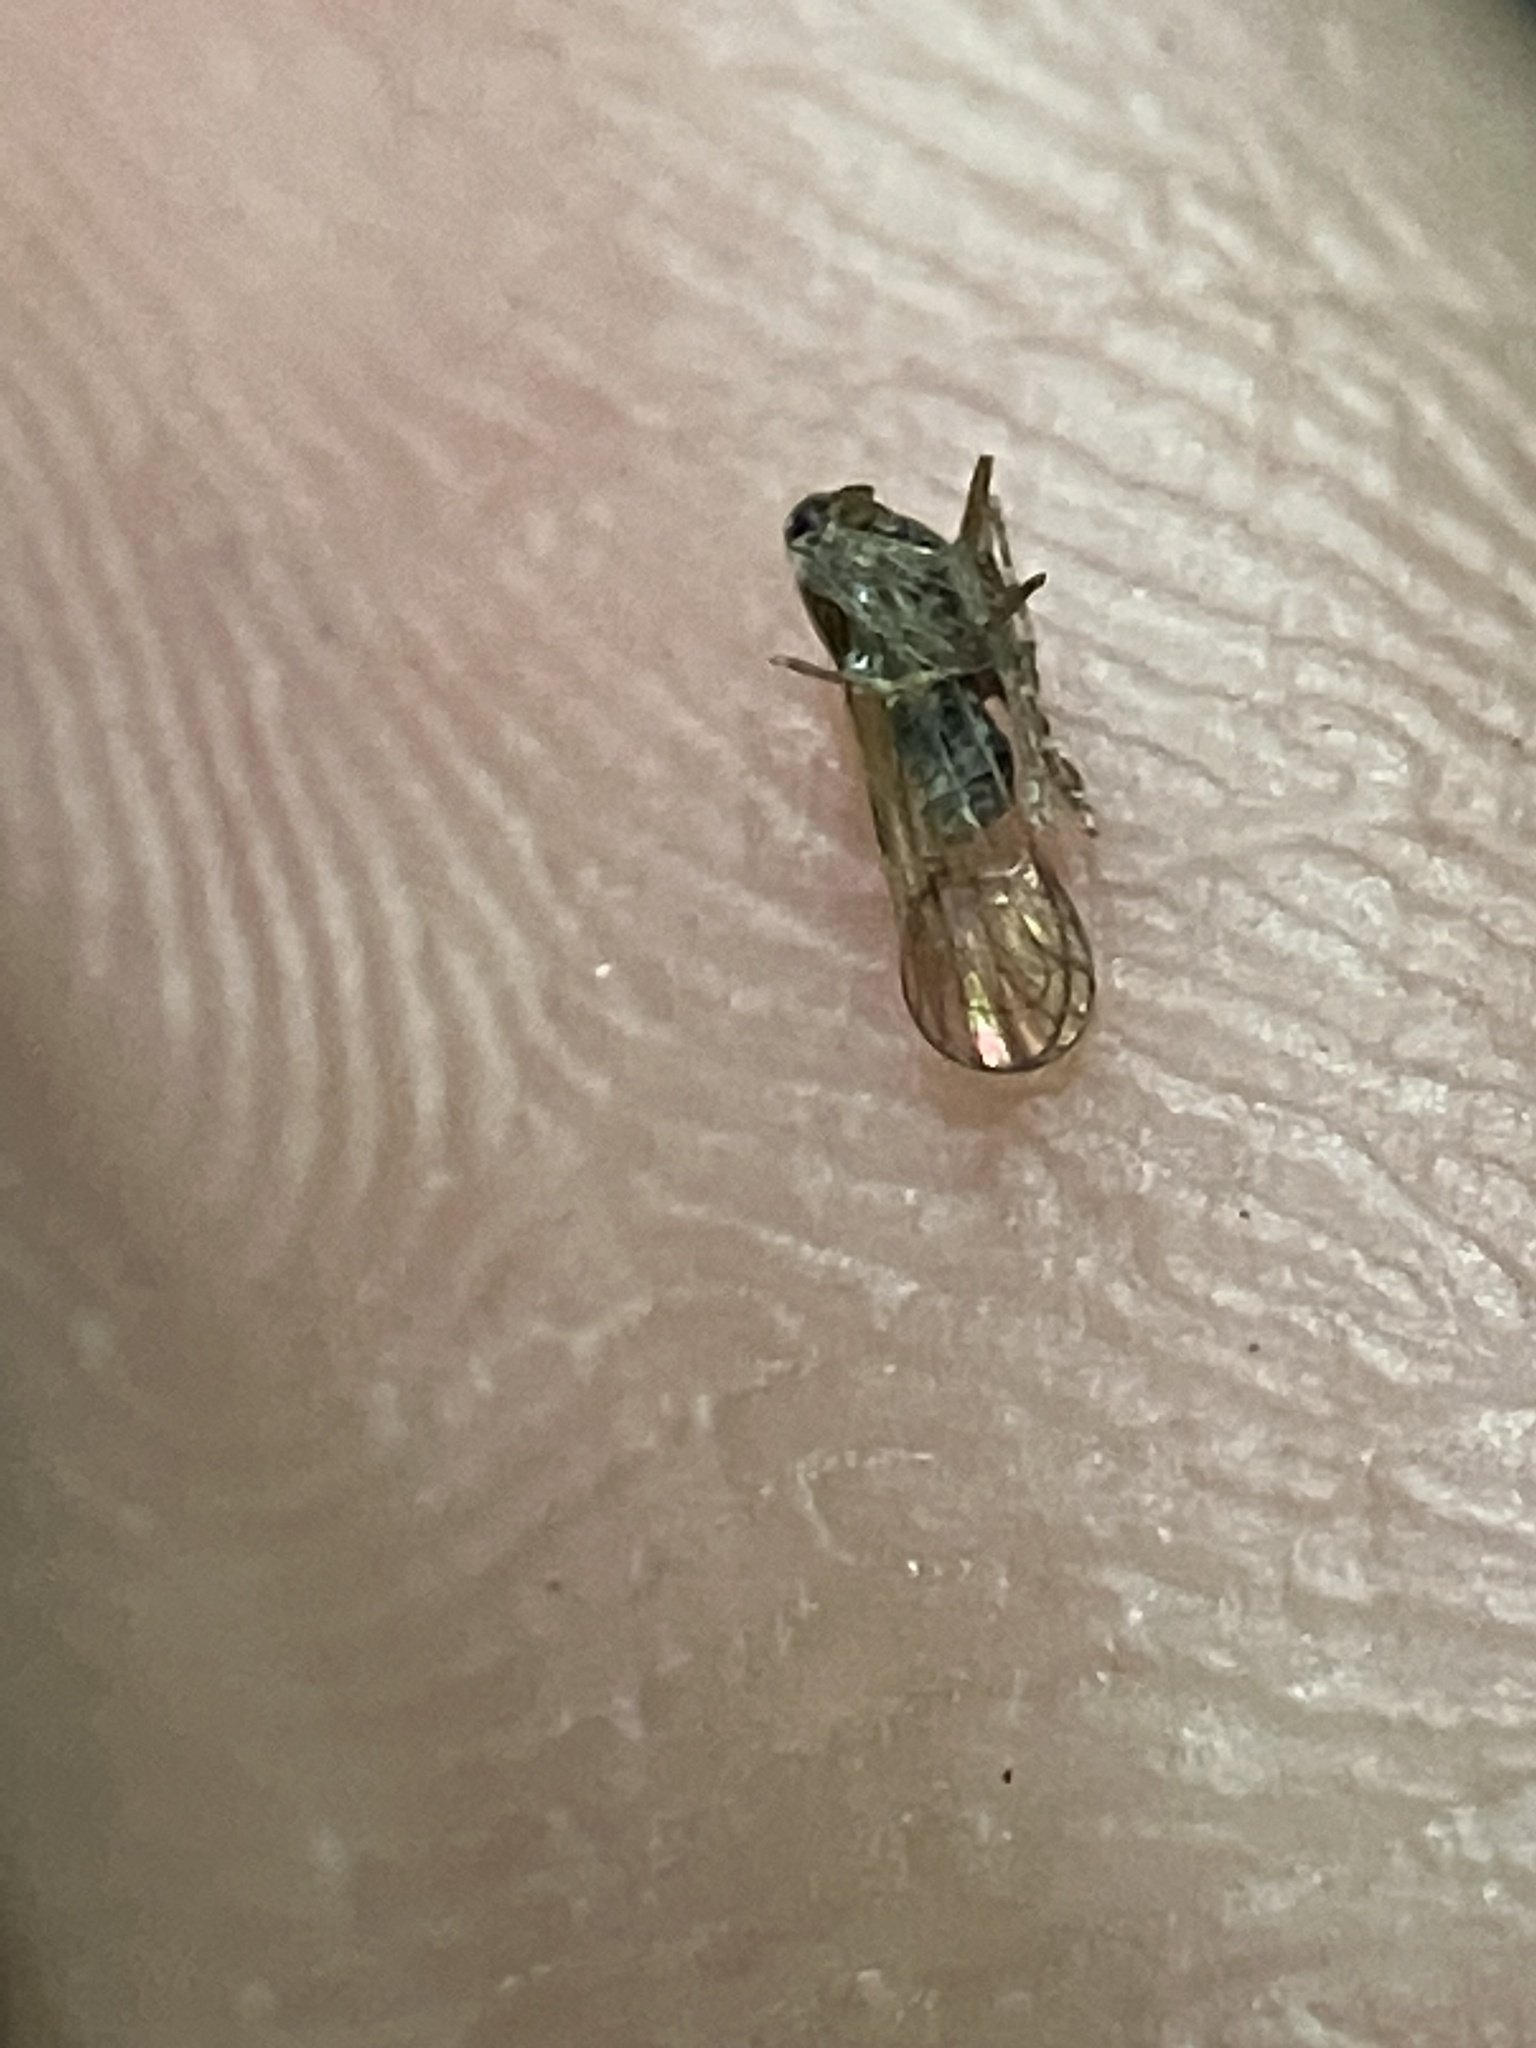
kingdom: Animalia
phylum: Arthropoda
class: Insecta
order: Hemiptera
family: Delphacidae
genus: Nilaparvata
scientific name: Nilaparvata lugens
